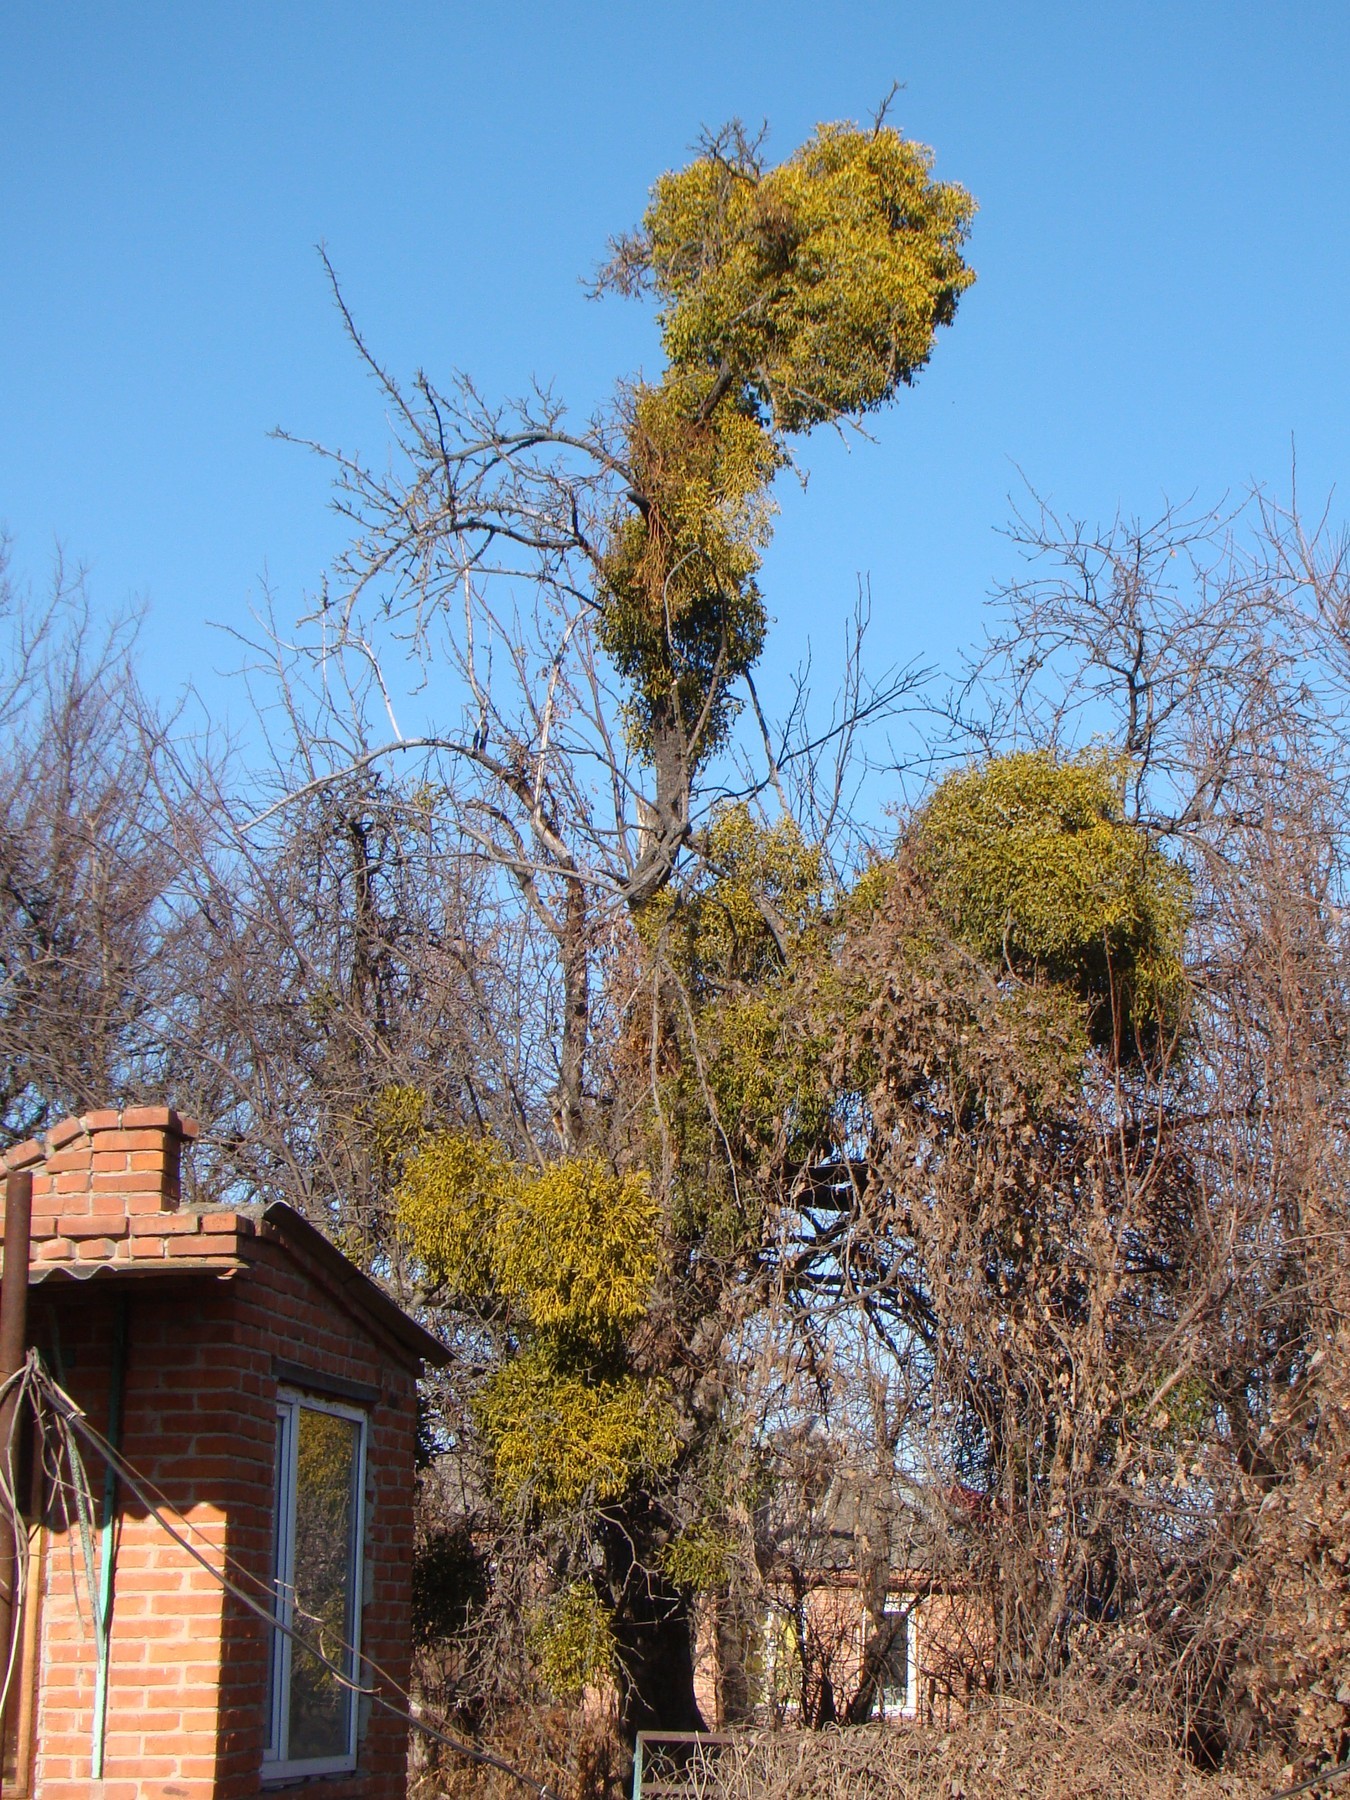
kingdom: Plantae
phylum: Tracheophyta
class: Magnoliopsida
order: Santalales
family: Viscaceae
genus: Viscum
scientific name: Viscum album
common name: Mistletoe
